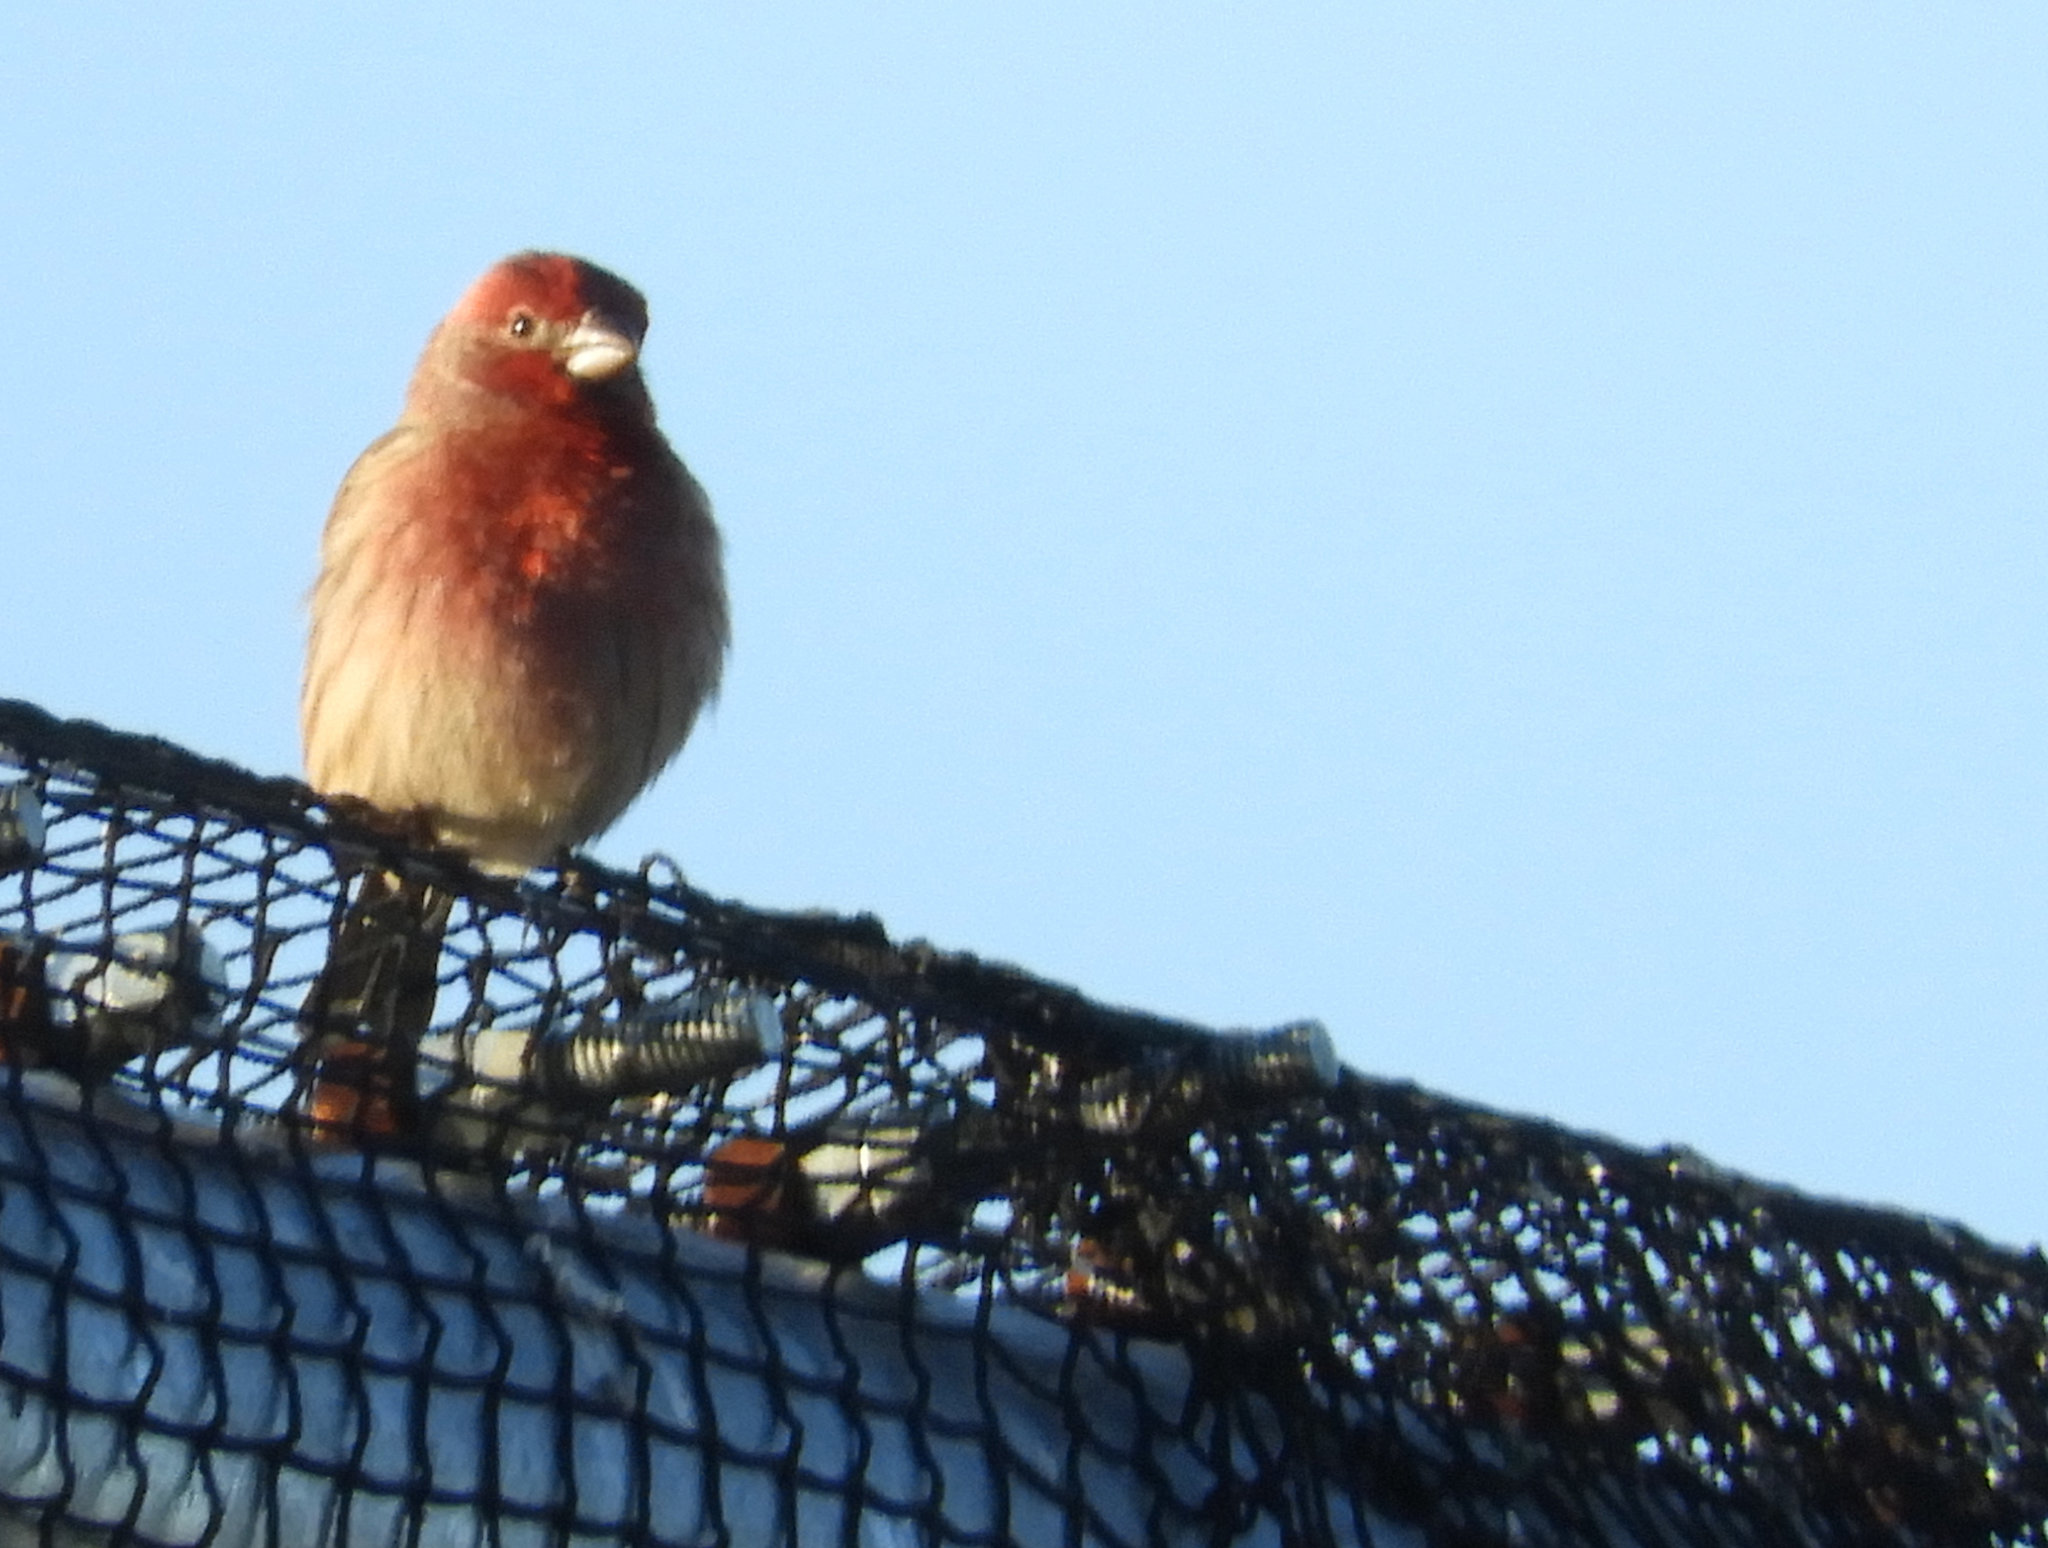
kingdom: Animalia
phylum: Chordata
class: Aves
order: Passeriformes
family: Fringillidae
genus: Haemorhous
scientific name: Haemorhous mexicanus
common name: House finch
